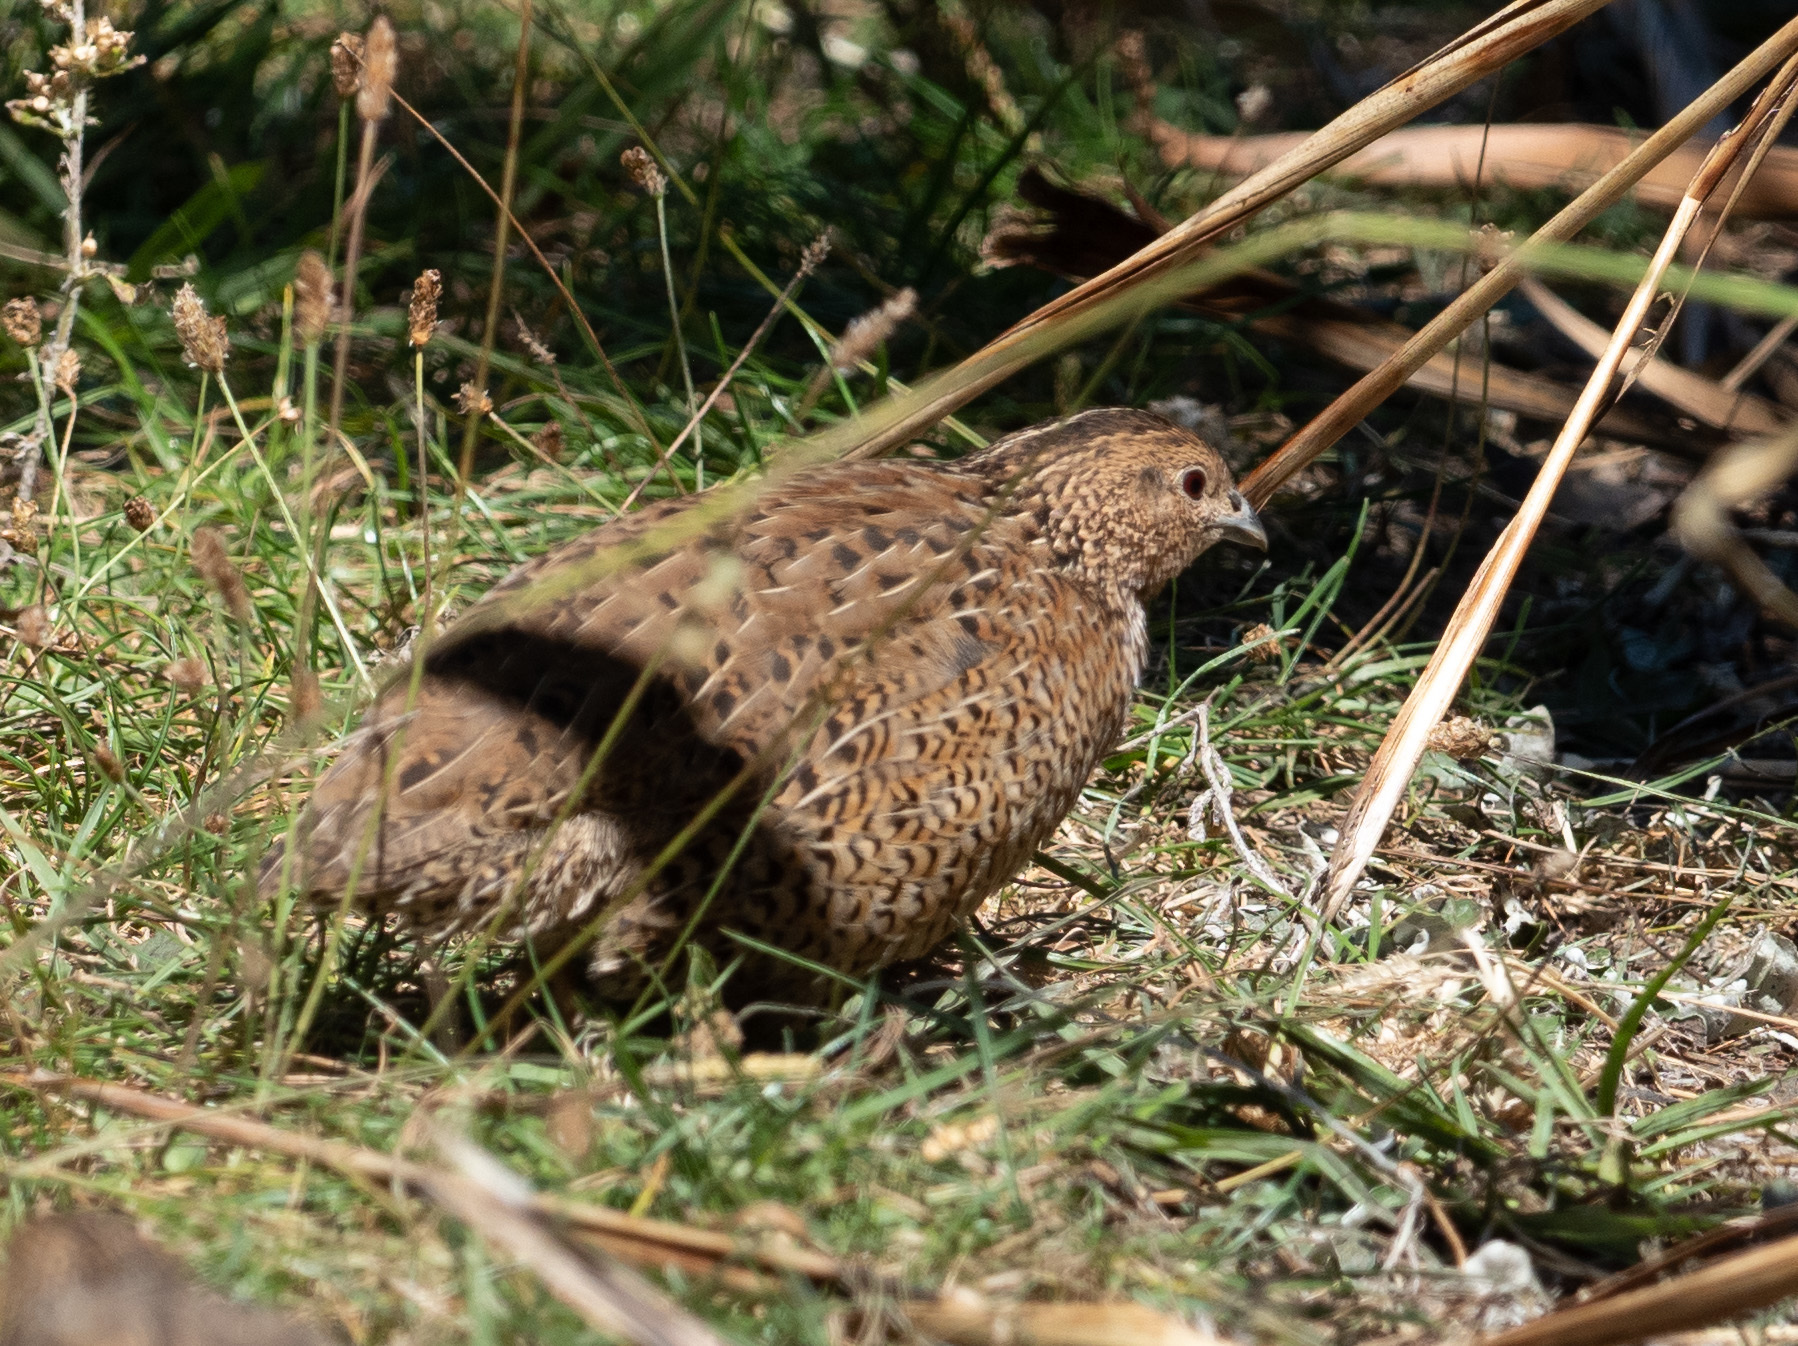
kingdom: Animalia
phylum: Chordata
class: Aves
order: Galliformes
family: Phasianidae
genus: Synoicus
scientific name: Synoicus ypsilophorus
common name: Brown quail
